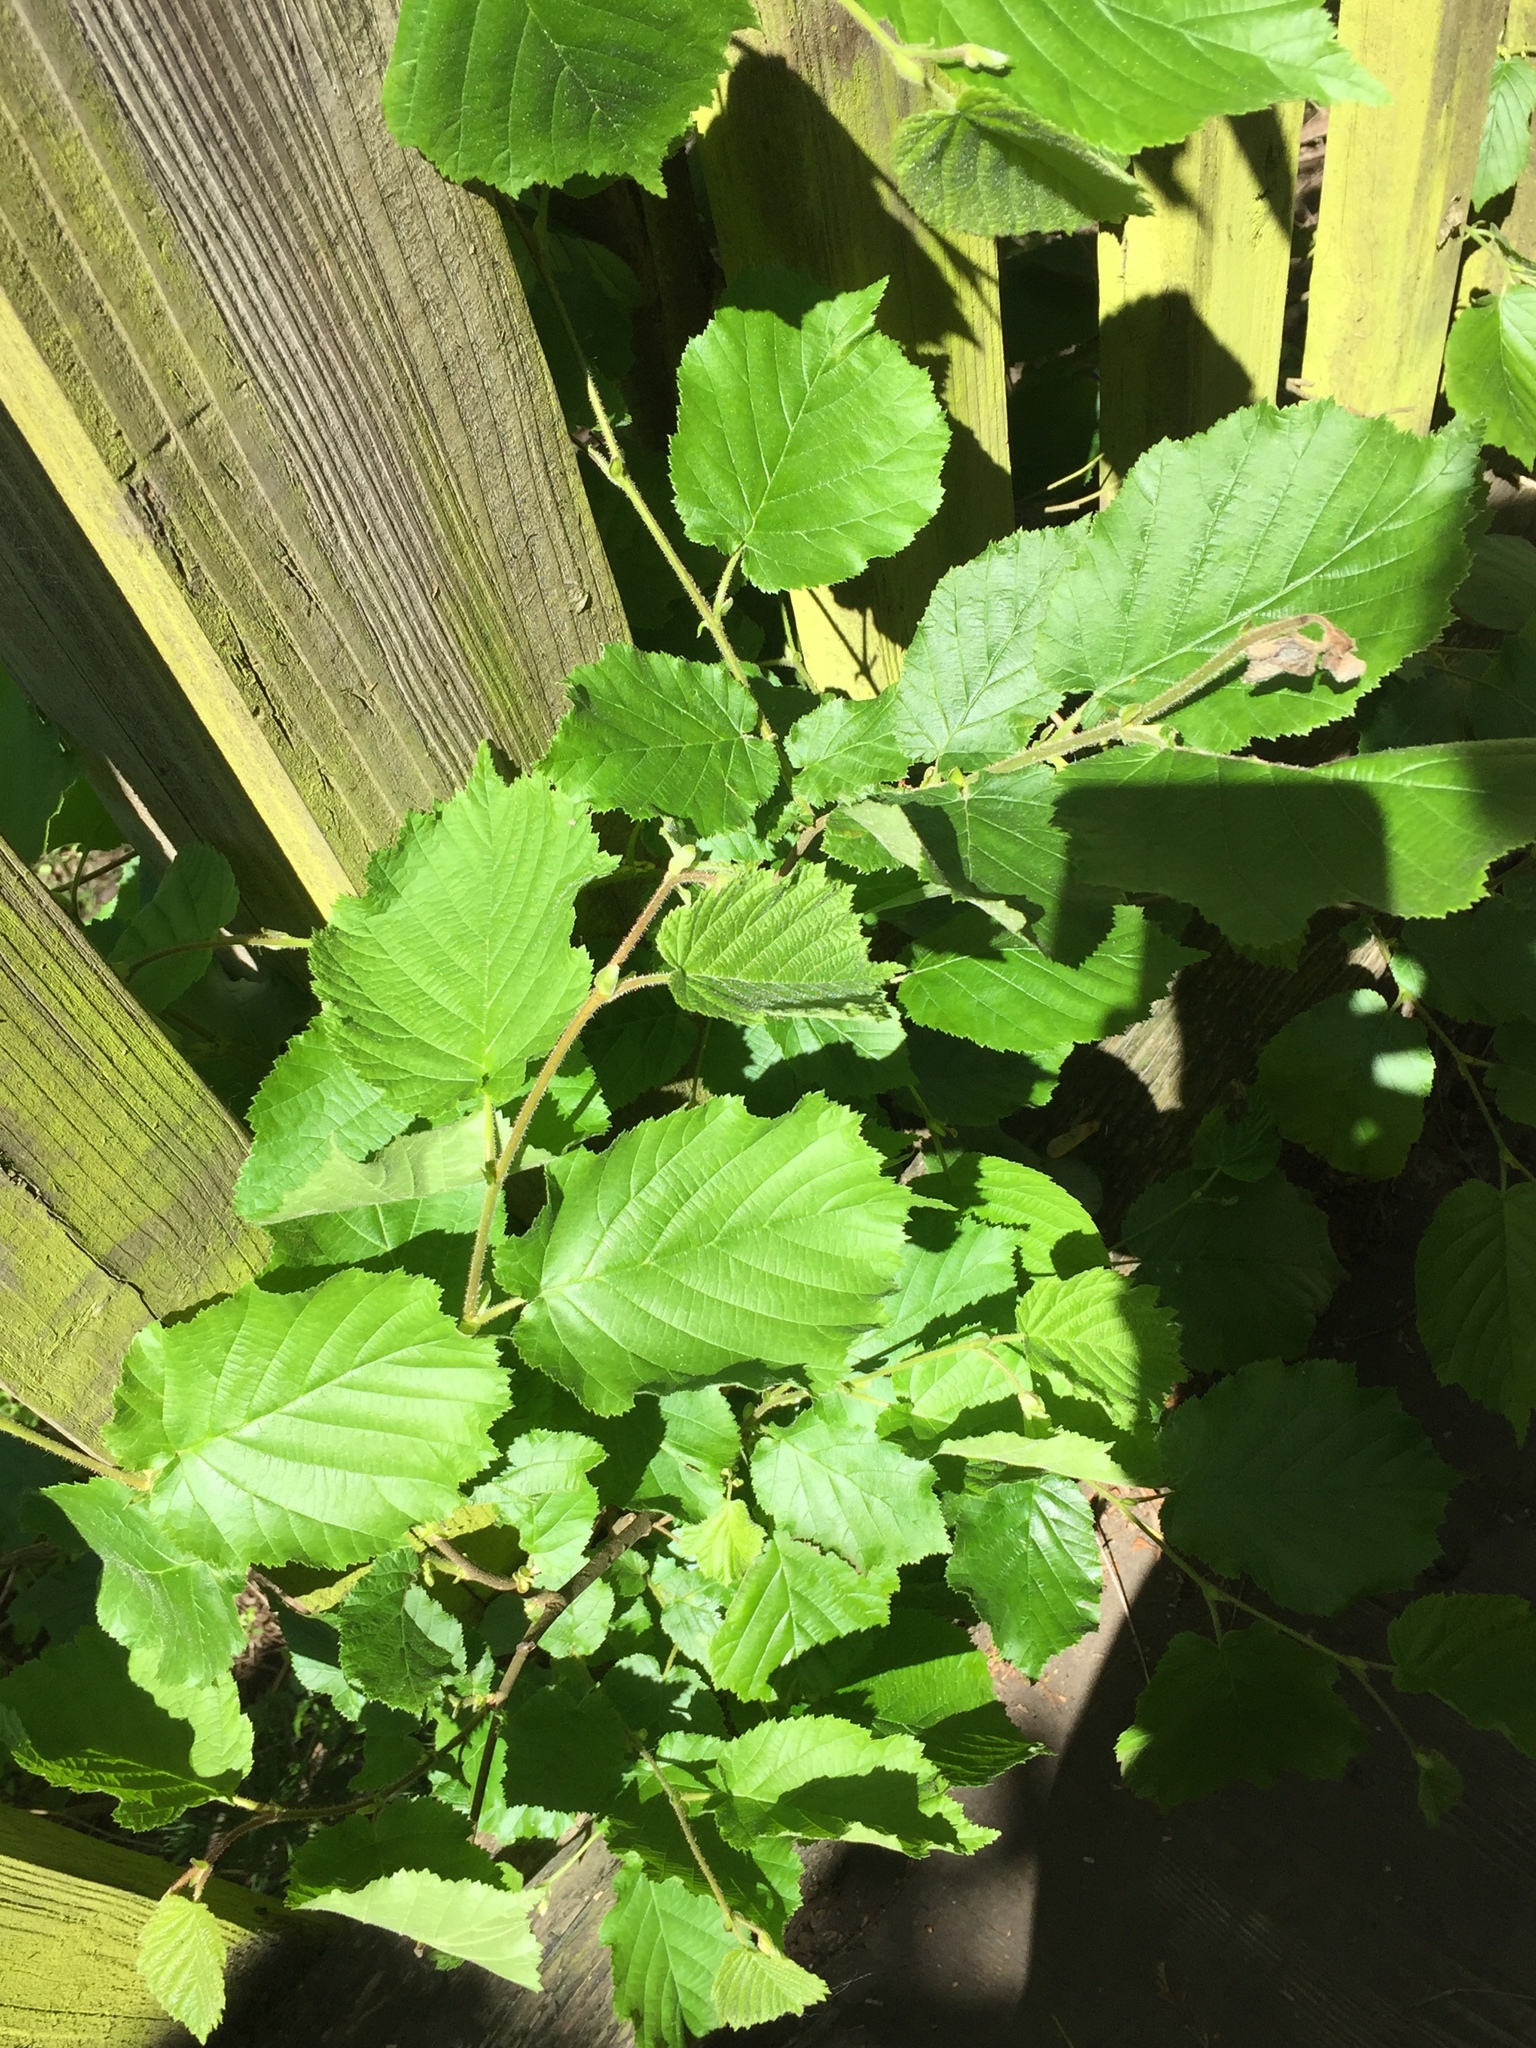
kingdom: Plantae
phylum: Tracheophyta
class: Magnoliopsida
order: Fagales
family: Betulaceae
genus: Corylus
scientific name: Corylus avellana
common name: European hazel
